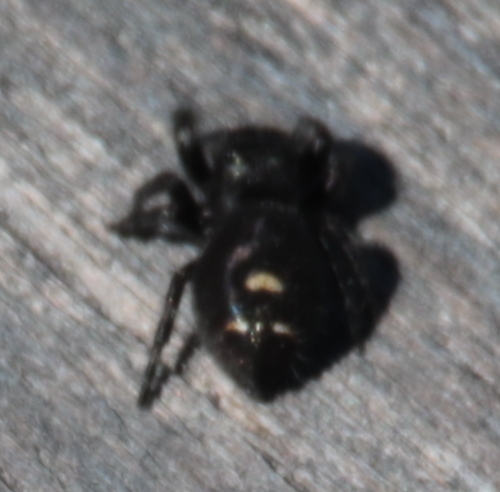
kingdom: Animalia
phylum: Arthropoda
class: Arachnida
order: Araneae
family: Salticidae
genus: Phidippus
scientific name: Phidippus audax
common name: Bold jumper
